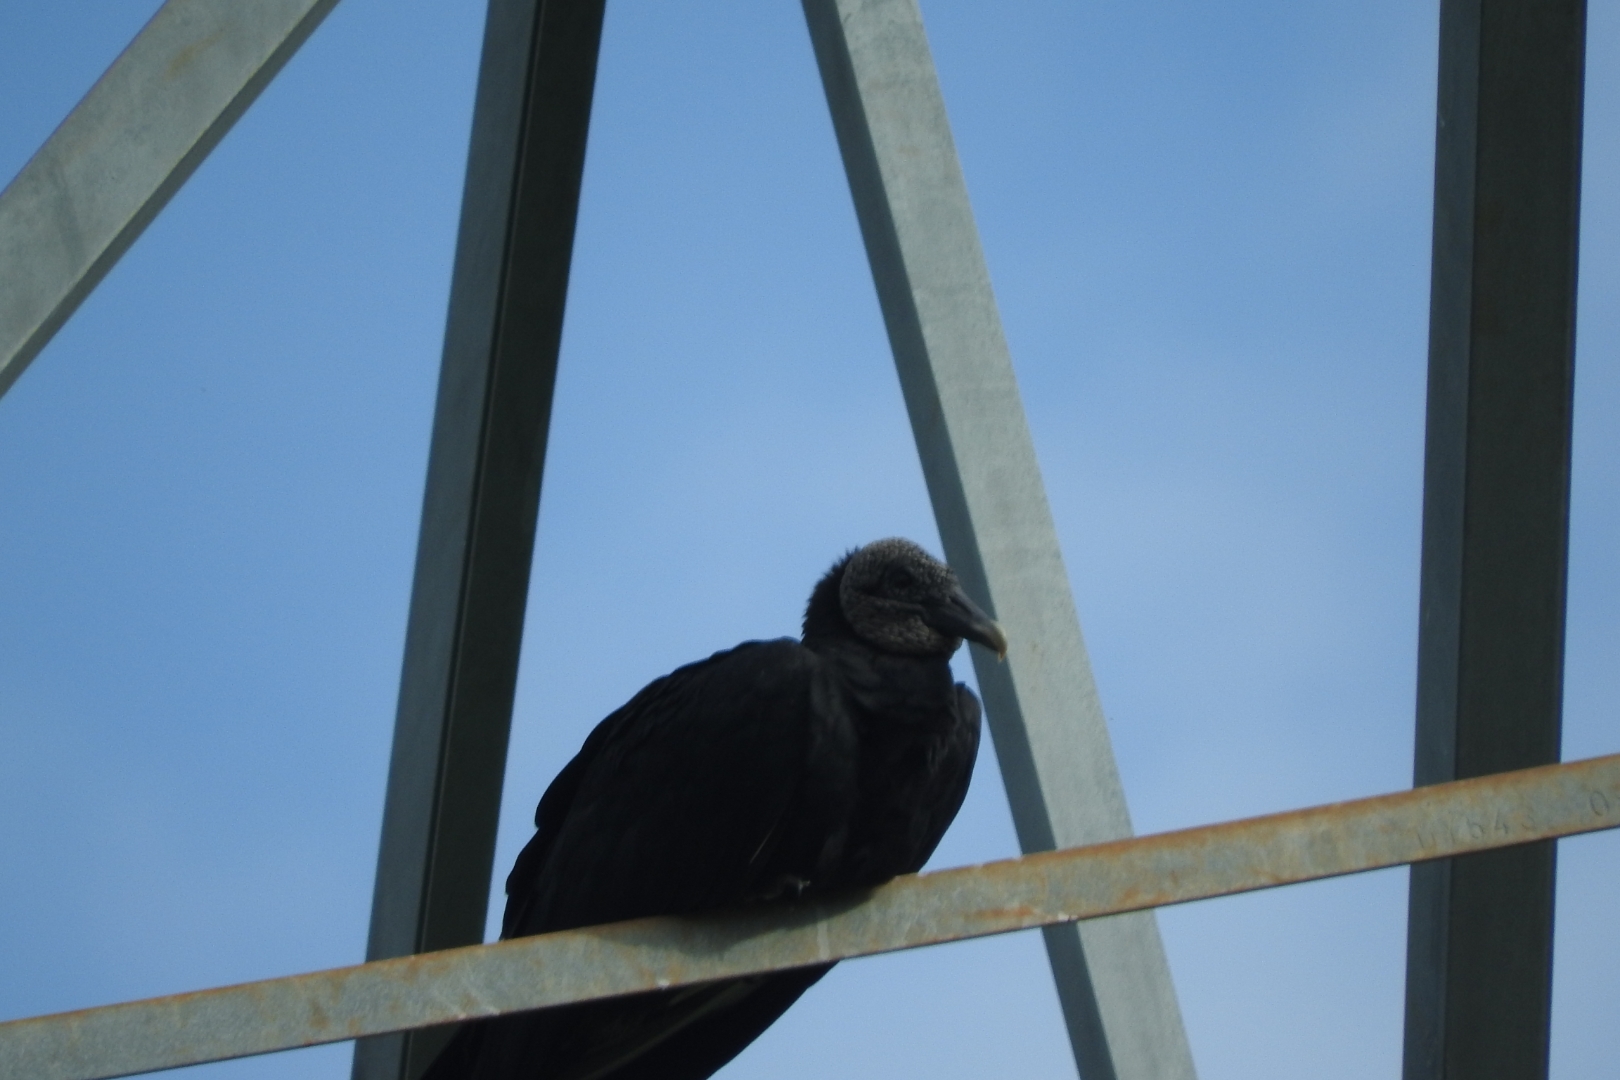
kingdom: Animalia
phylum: Chordata
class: Aves
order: Accipitriformes
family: Cathartidae
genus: Coragyps
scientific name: Coragyps atratus
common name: Black vulture
